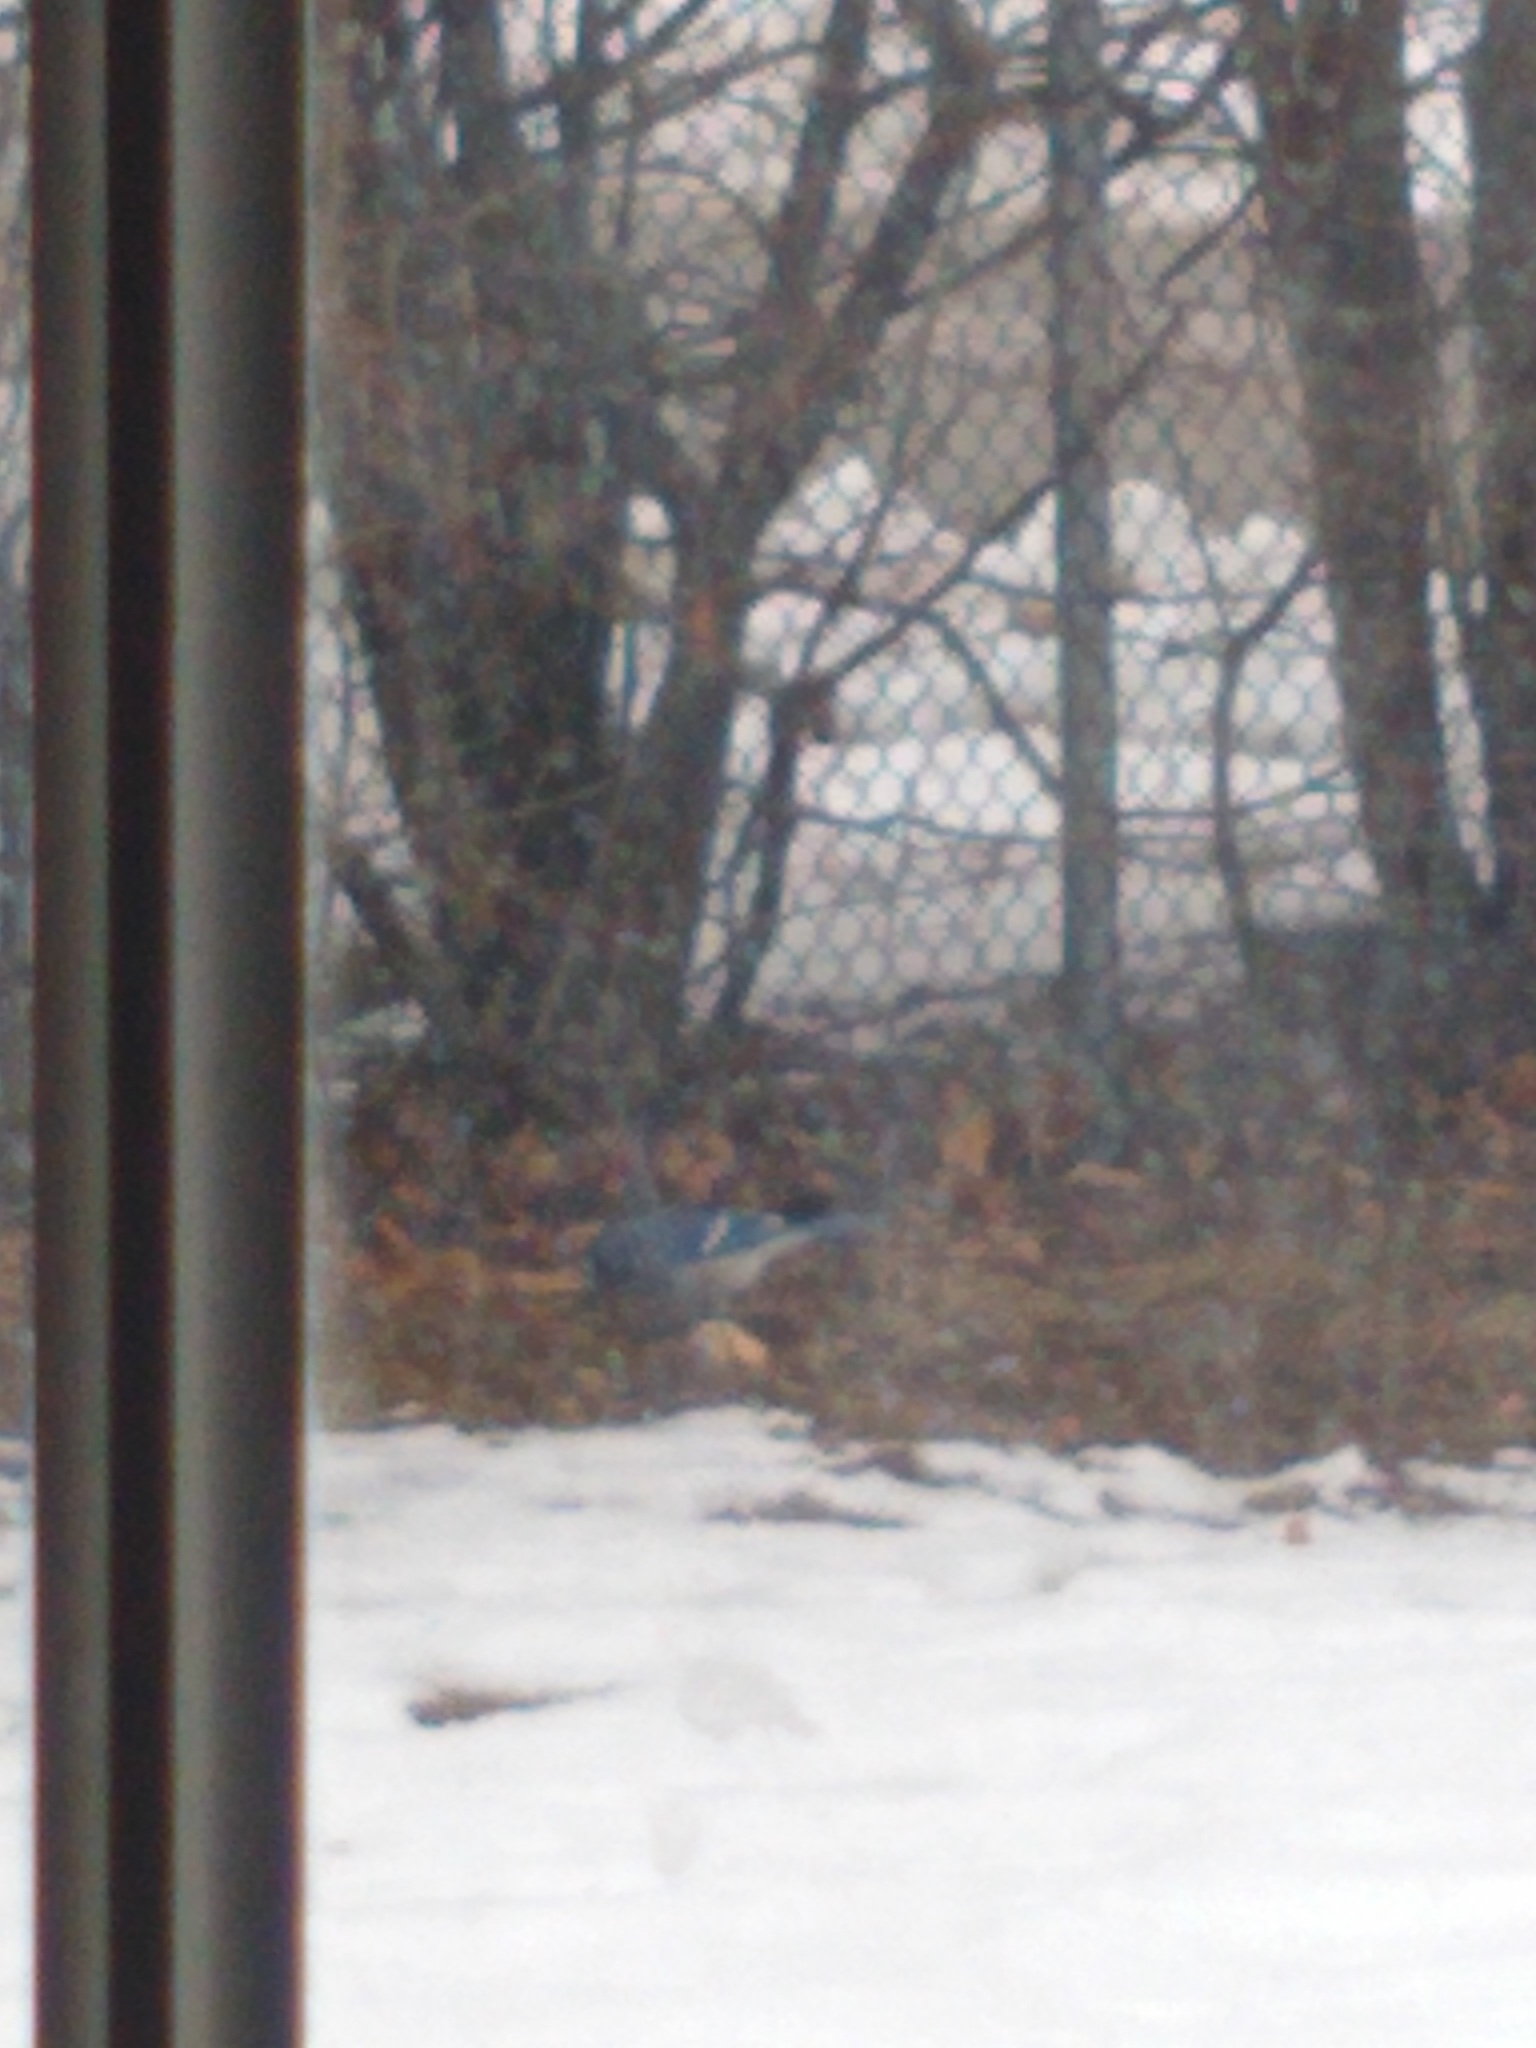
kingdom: Animalia
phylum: Chordata
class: Aves
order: Passeriformes
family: Corvidae
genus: Cyanocitta
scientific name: Cyanocitta cristata
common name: Blue jay
